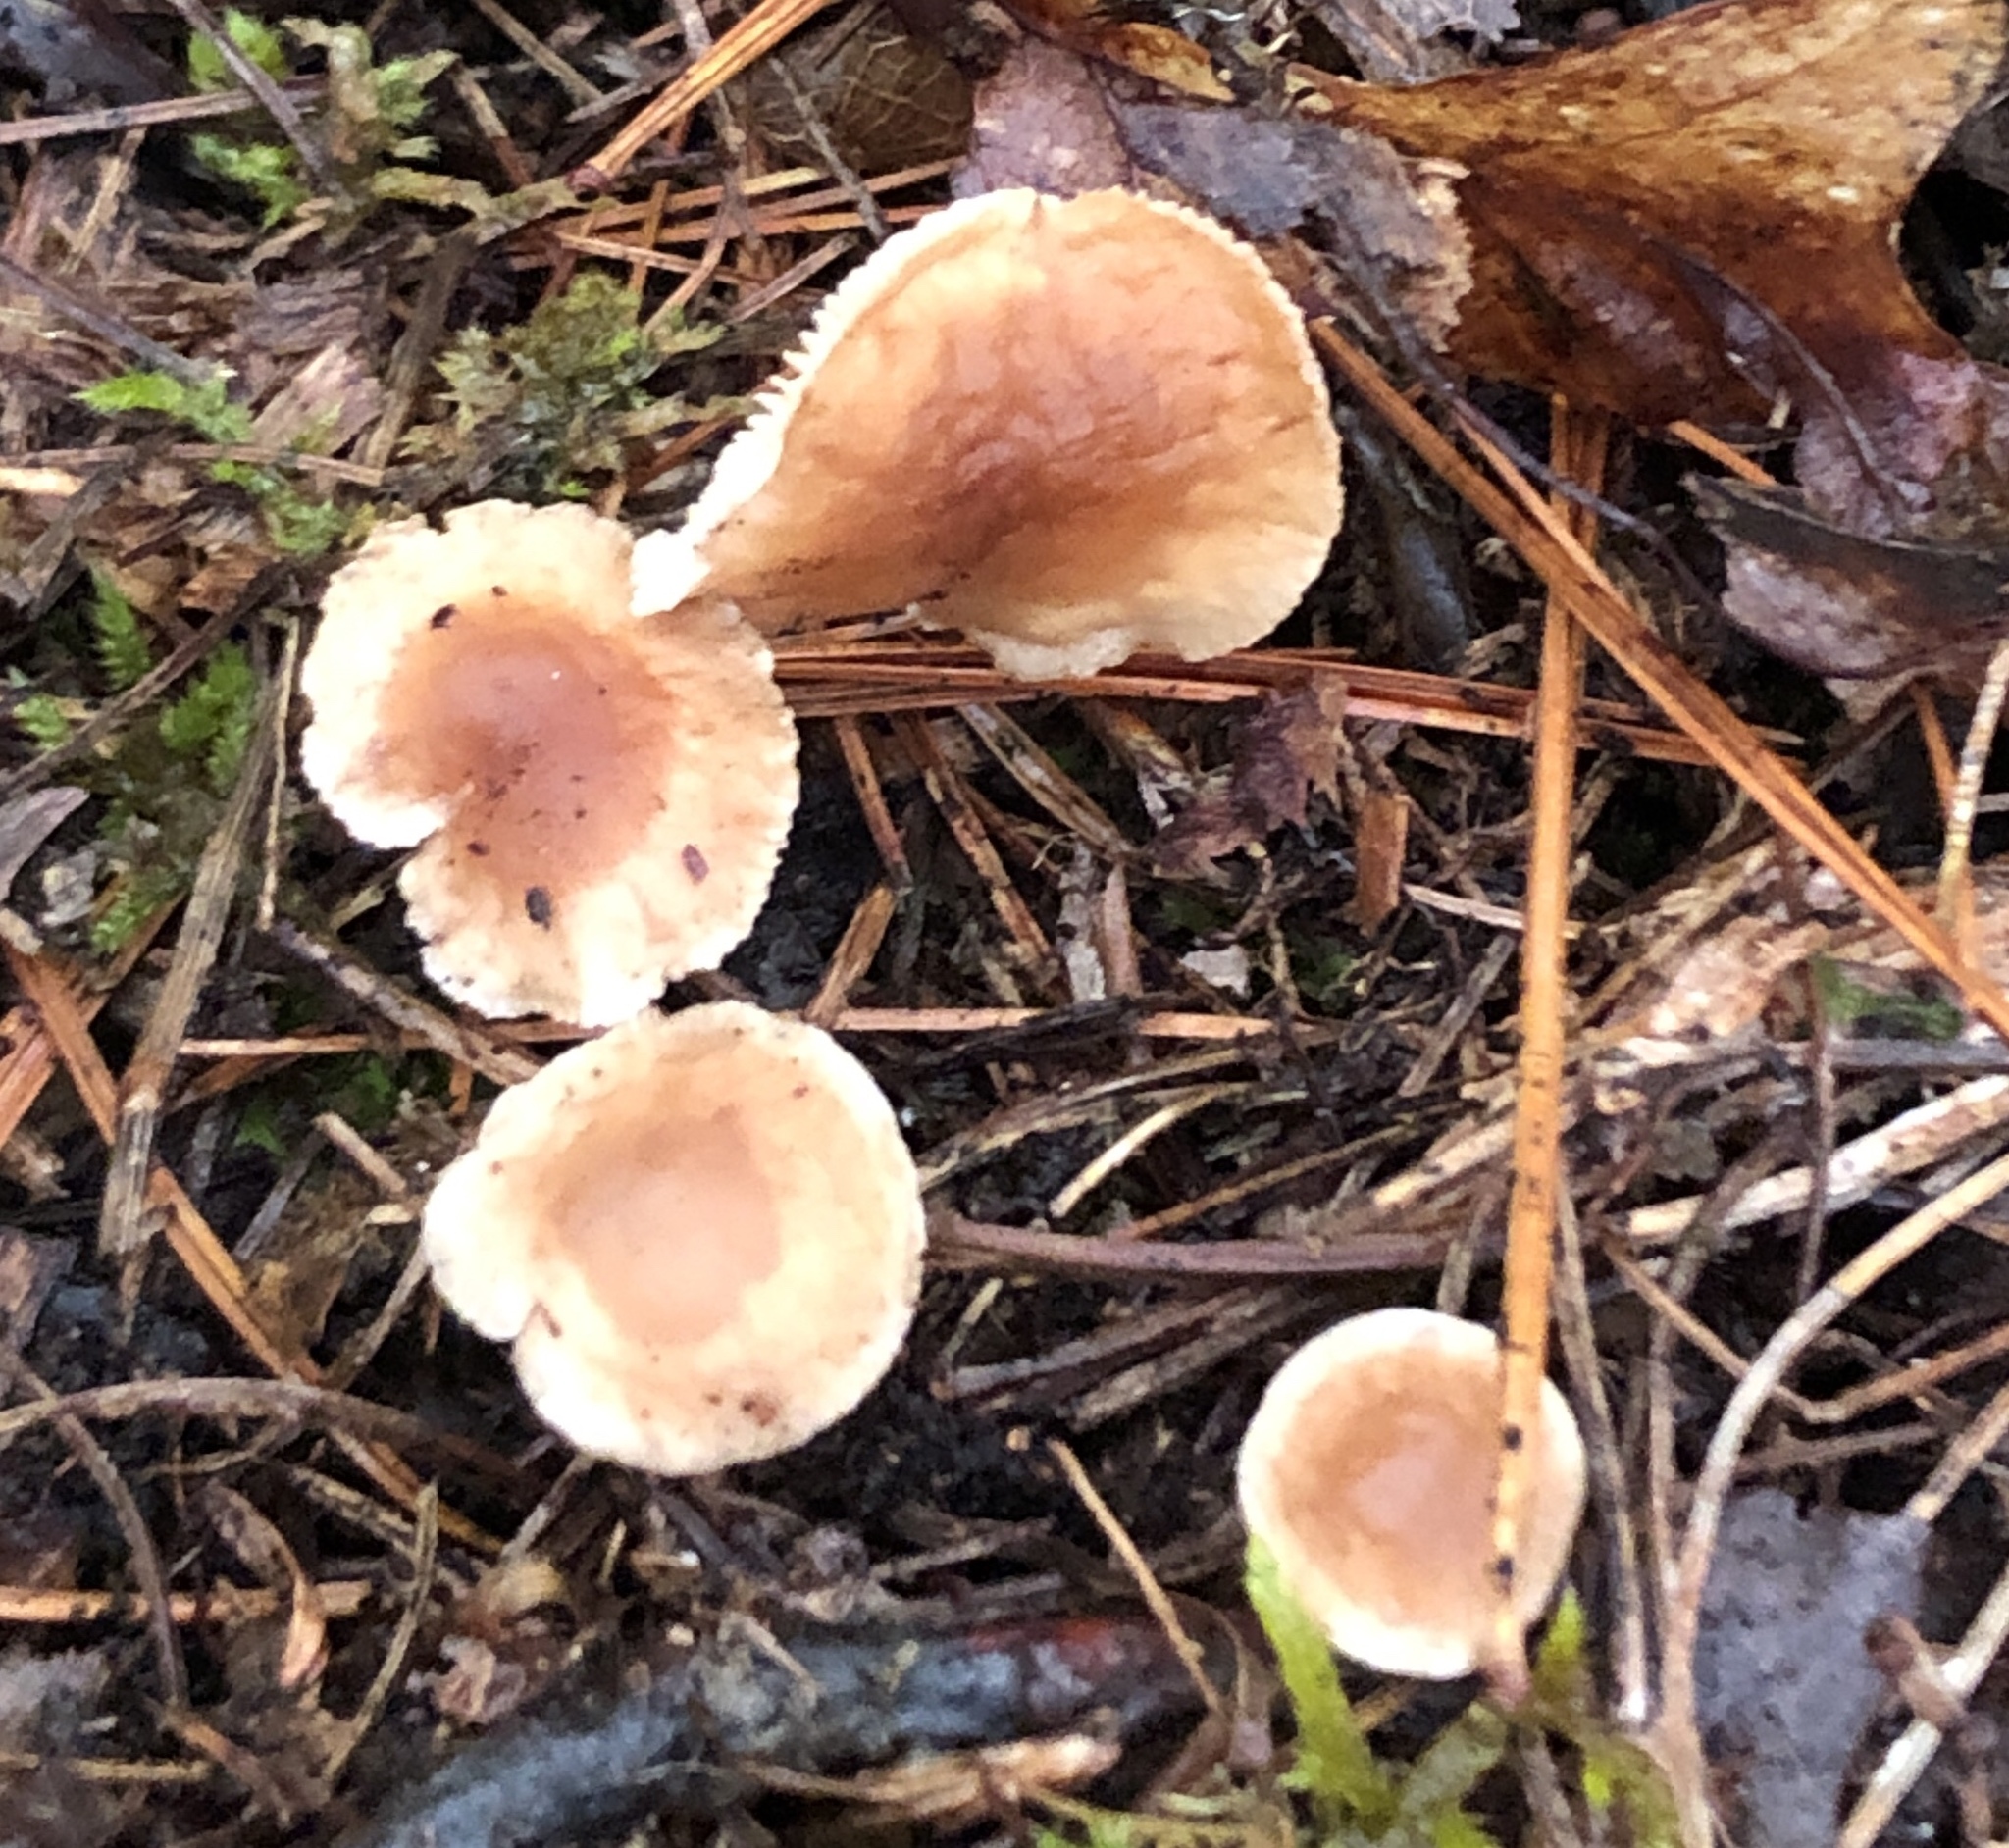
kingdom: Fungi
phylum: Basidiomycota
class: Agaricomycetes
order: Agaricales
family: Omphalotaceae
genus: Gymnopus
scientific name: Gymnopus semihirtipes
